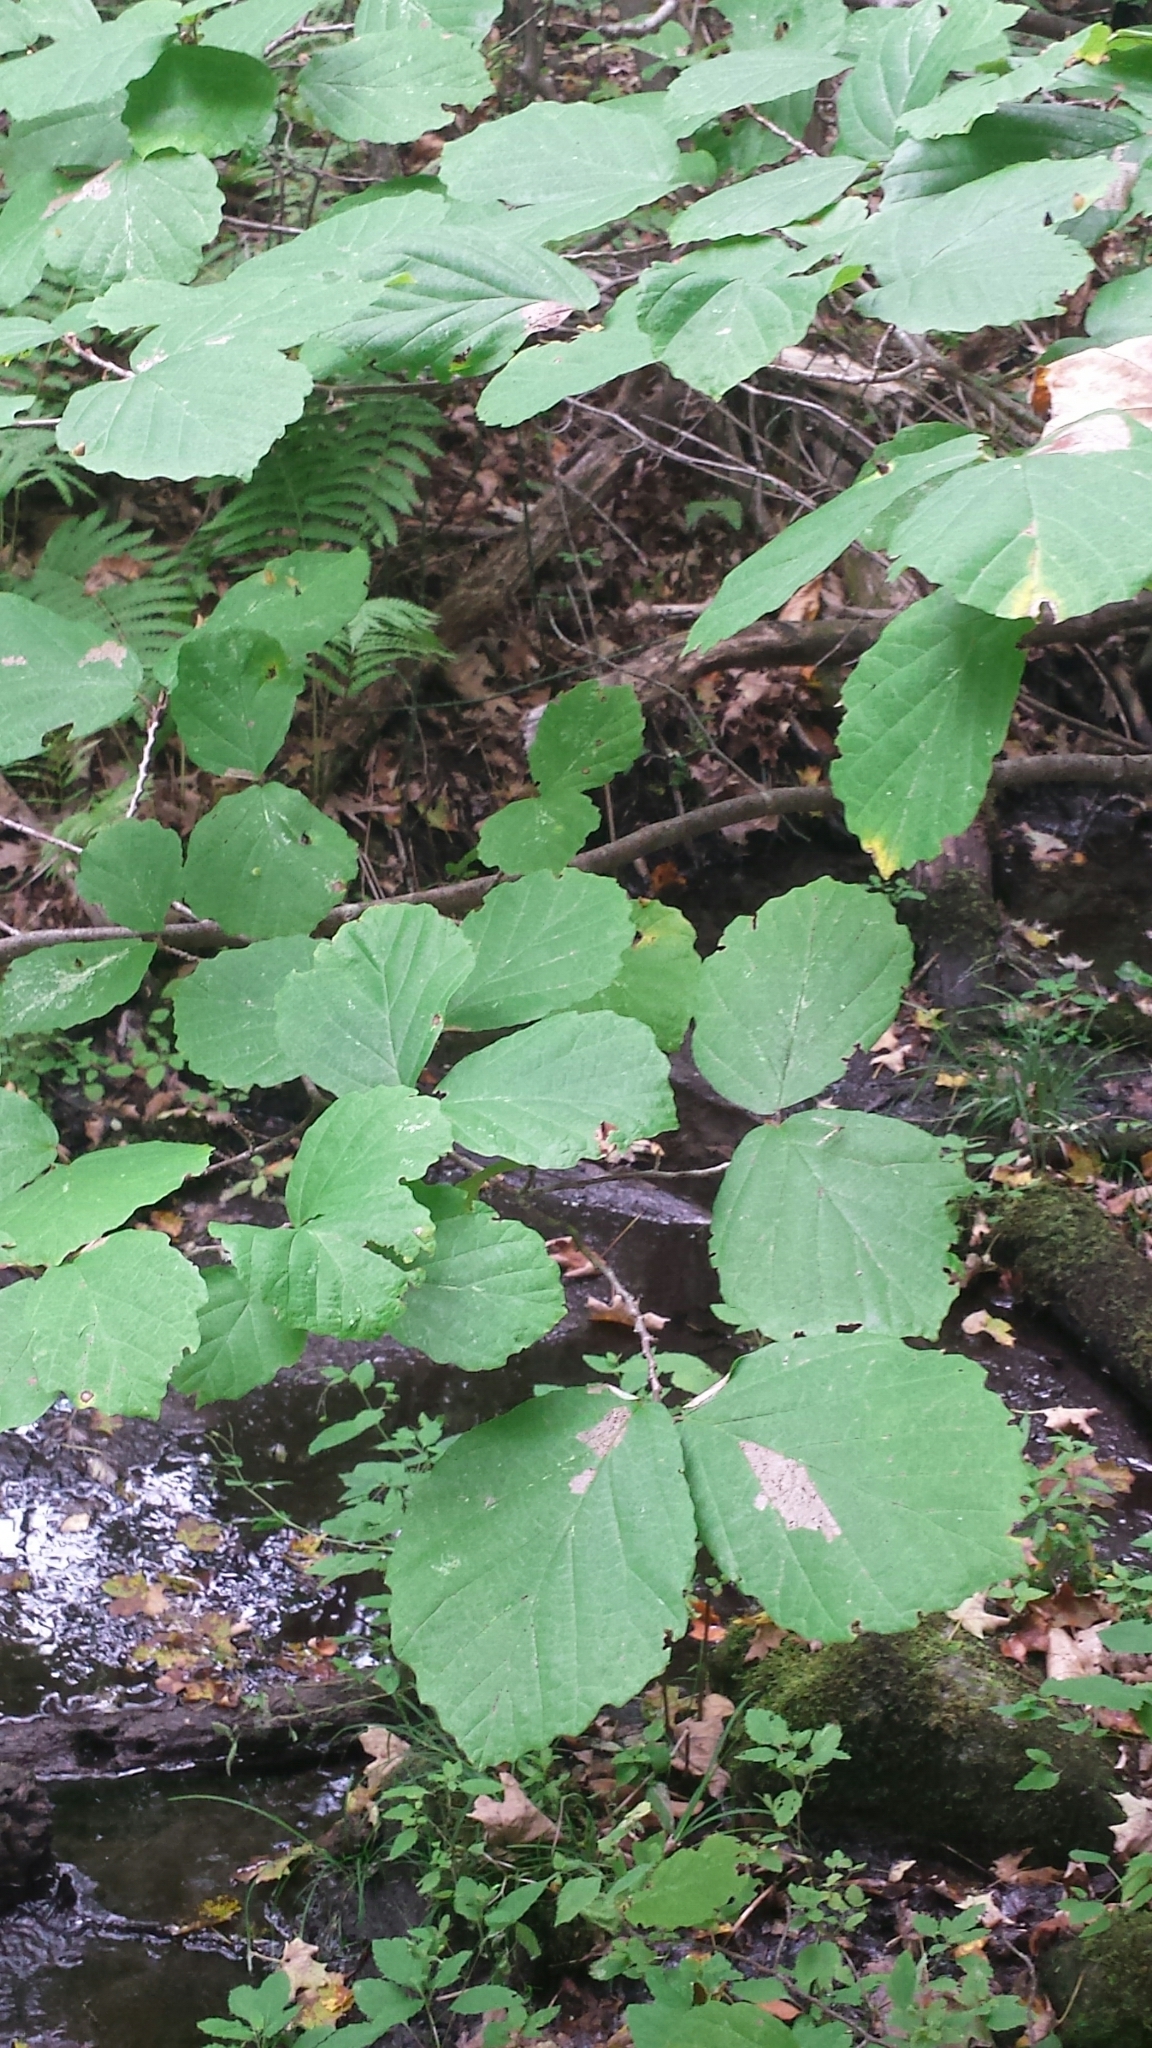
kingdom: Plantae
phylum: Tracheophyta
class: Magnoliopsida
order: Saxifragales
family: Hamamelidaceae
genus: Hamamelis
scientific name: Hamamelis virginiana
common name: Witch-hazel
